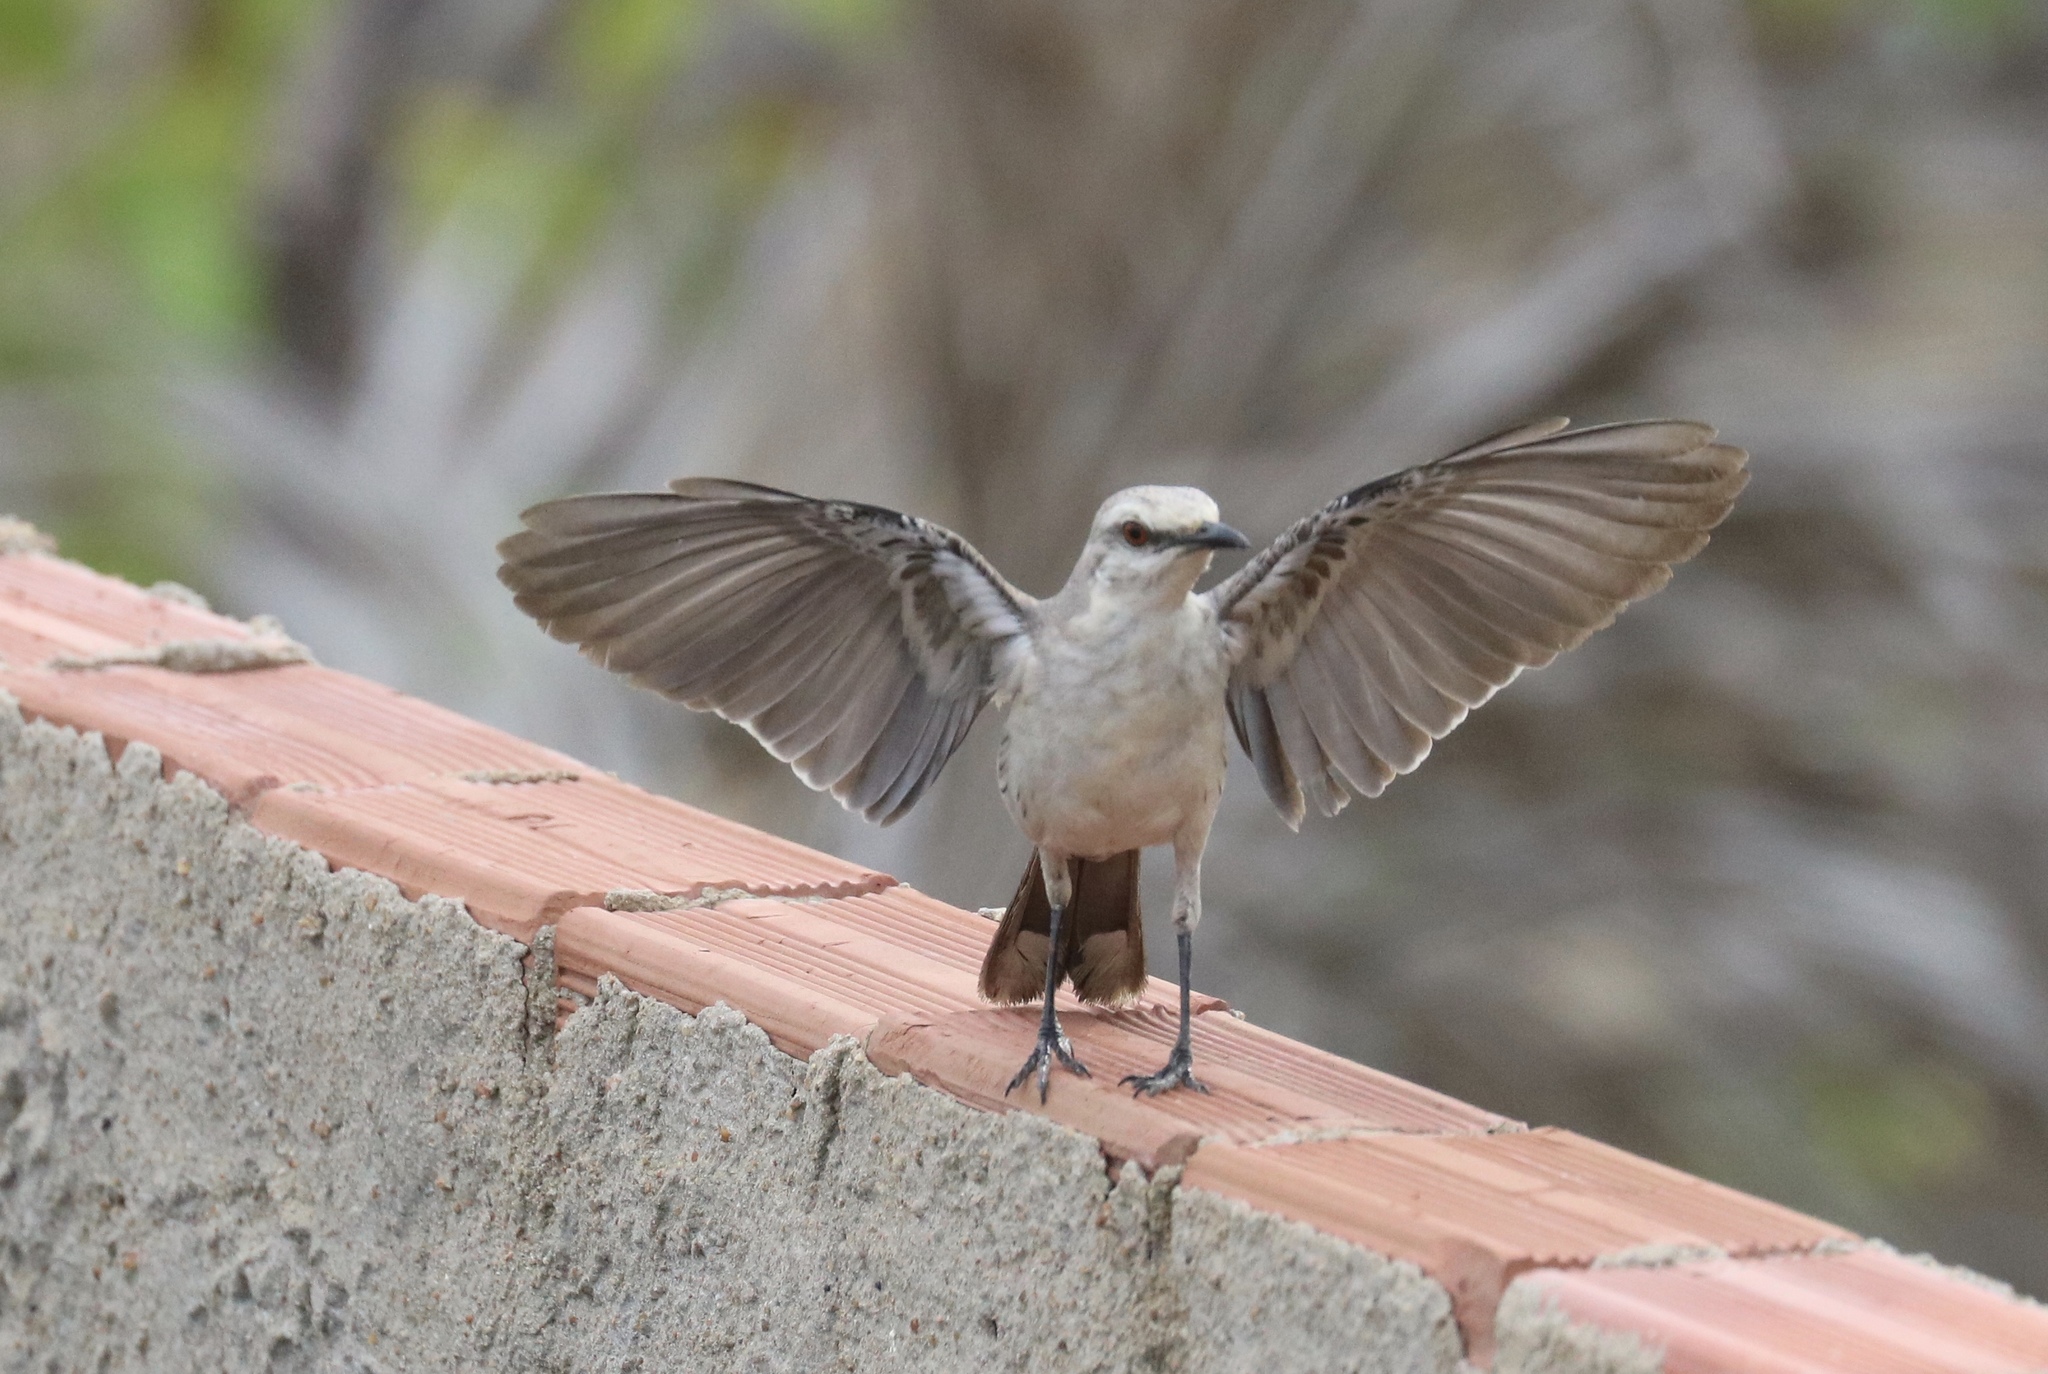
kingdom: Animalia
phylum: Chordata
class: Aves
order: Passeriformes
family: Mimidae
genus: Mimus
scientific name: Mimus gilvus
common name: Tropical mockingbird
